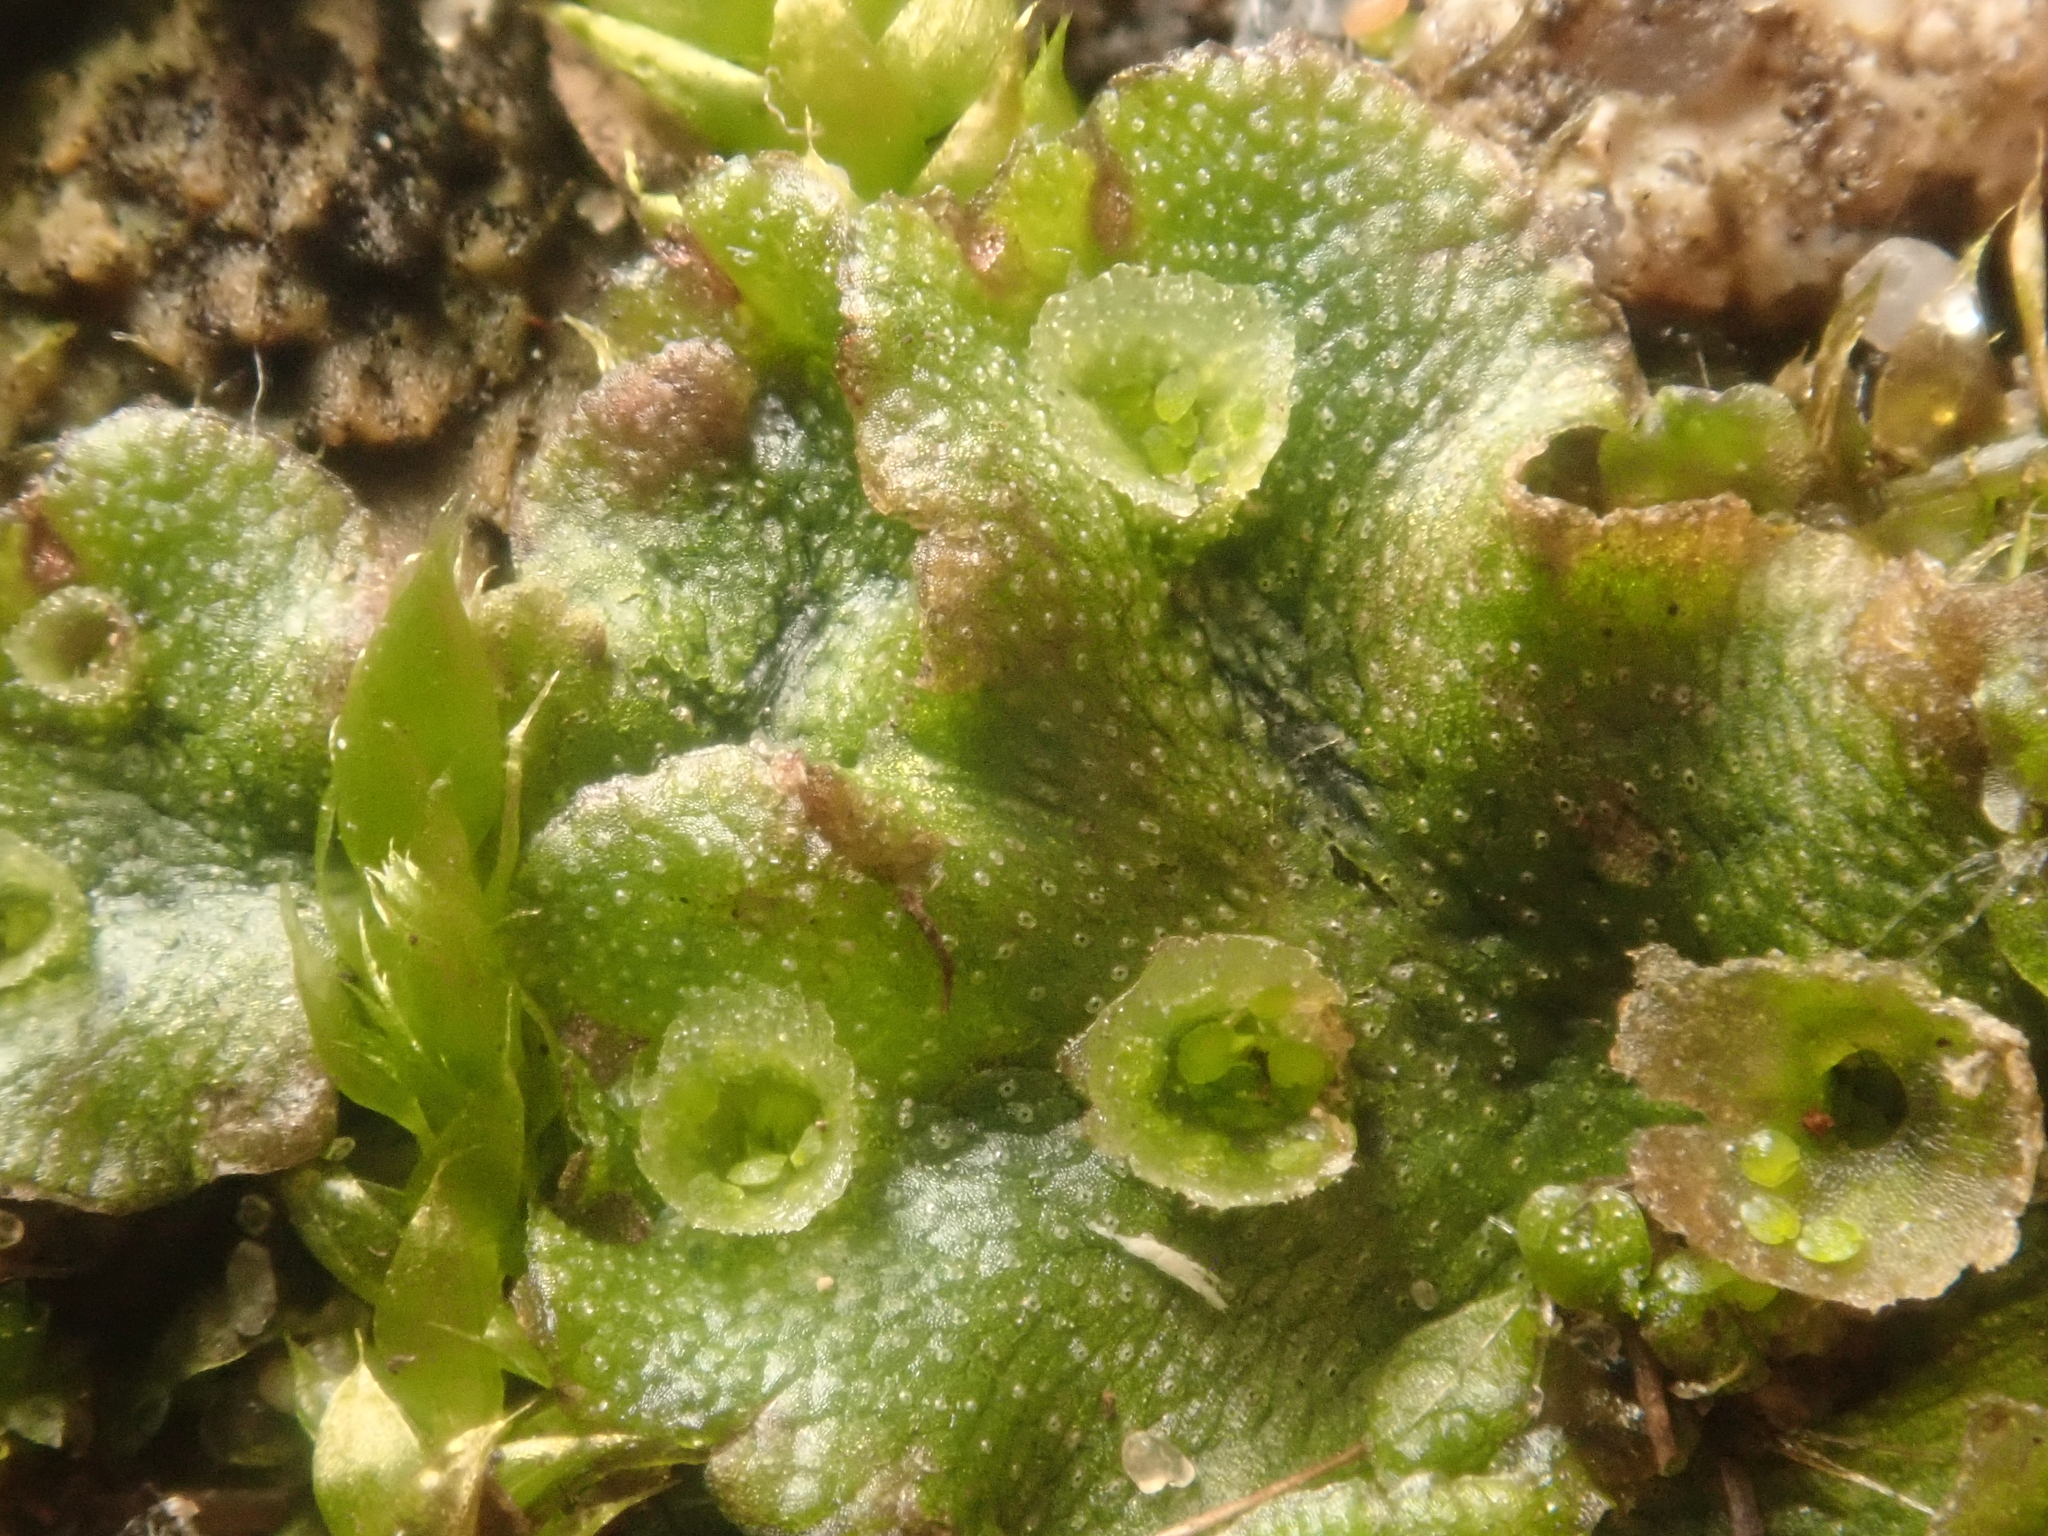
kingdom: Plantae
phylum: Marchantiophyta
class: Marchantiopsida
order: Marchantiales
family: Marchantiaceae
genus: Marchantia
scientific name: Marchantia polymorpha
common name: Common liverwort
